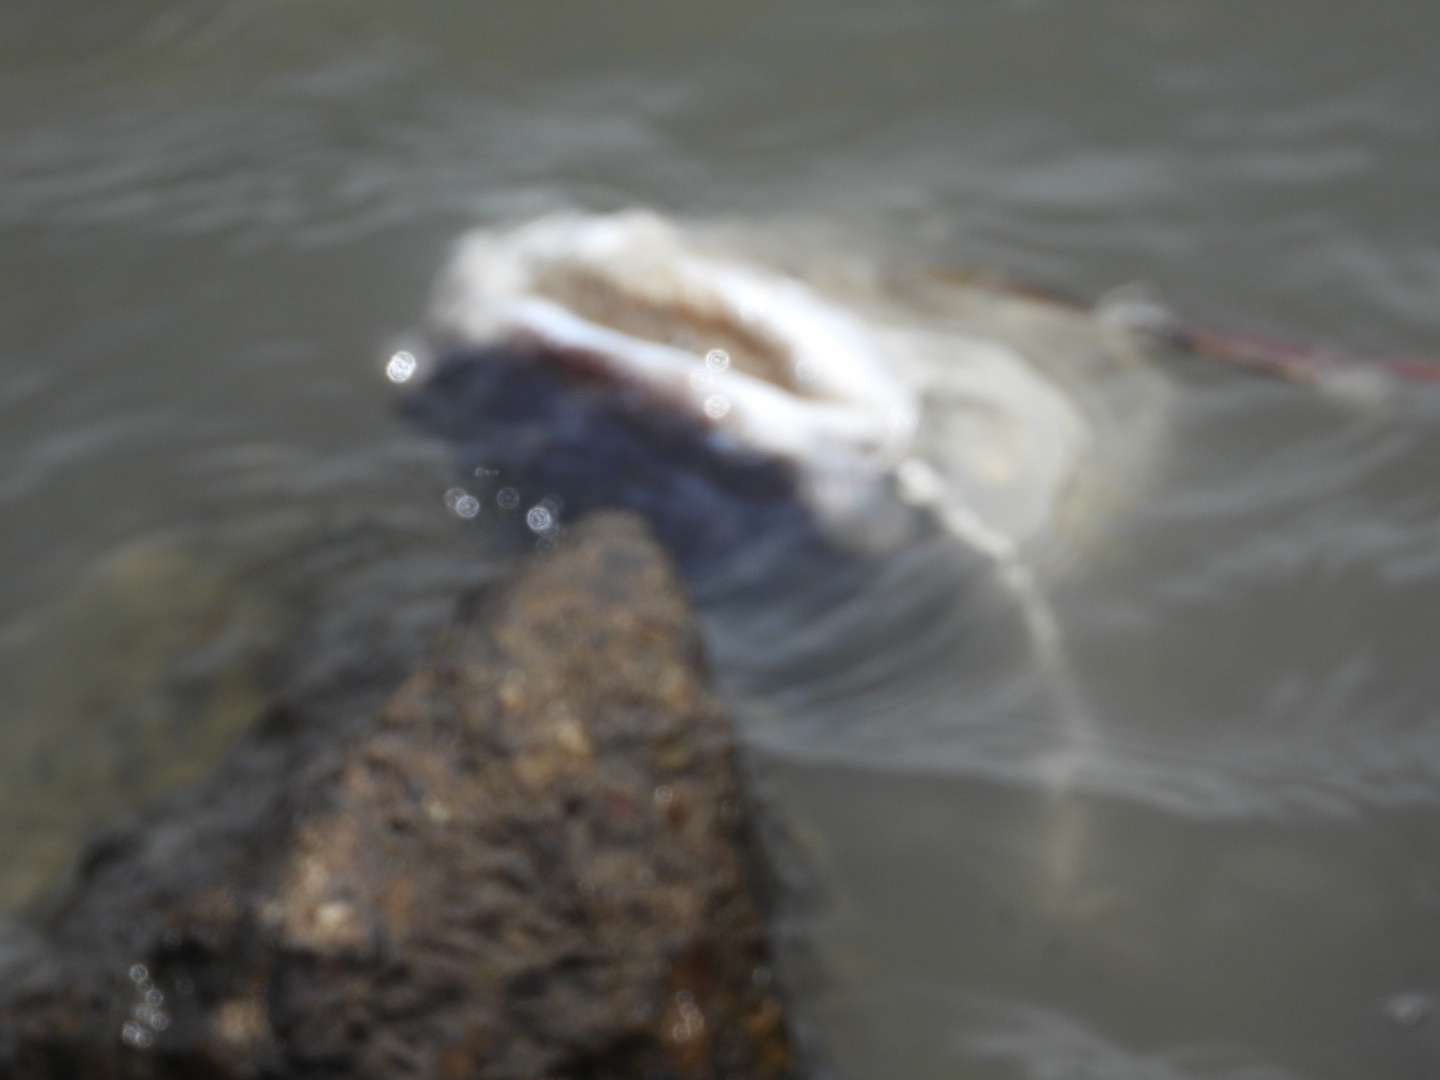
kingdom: Animalia
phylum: Chordata
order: Siluriformes
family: Ariidae
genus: Bagre
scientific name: Bagre marinus
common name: Gafftopsail sea catfish
